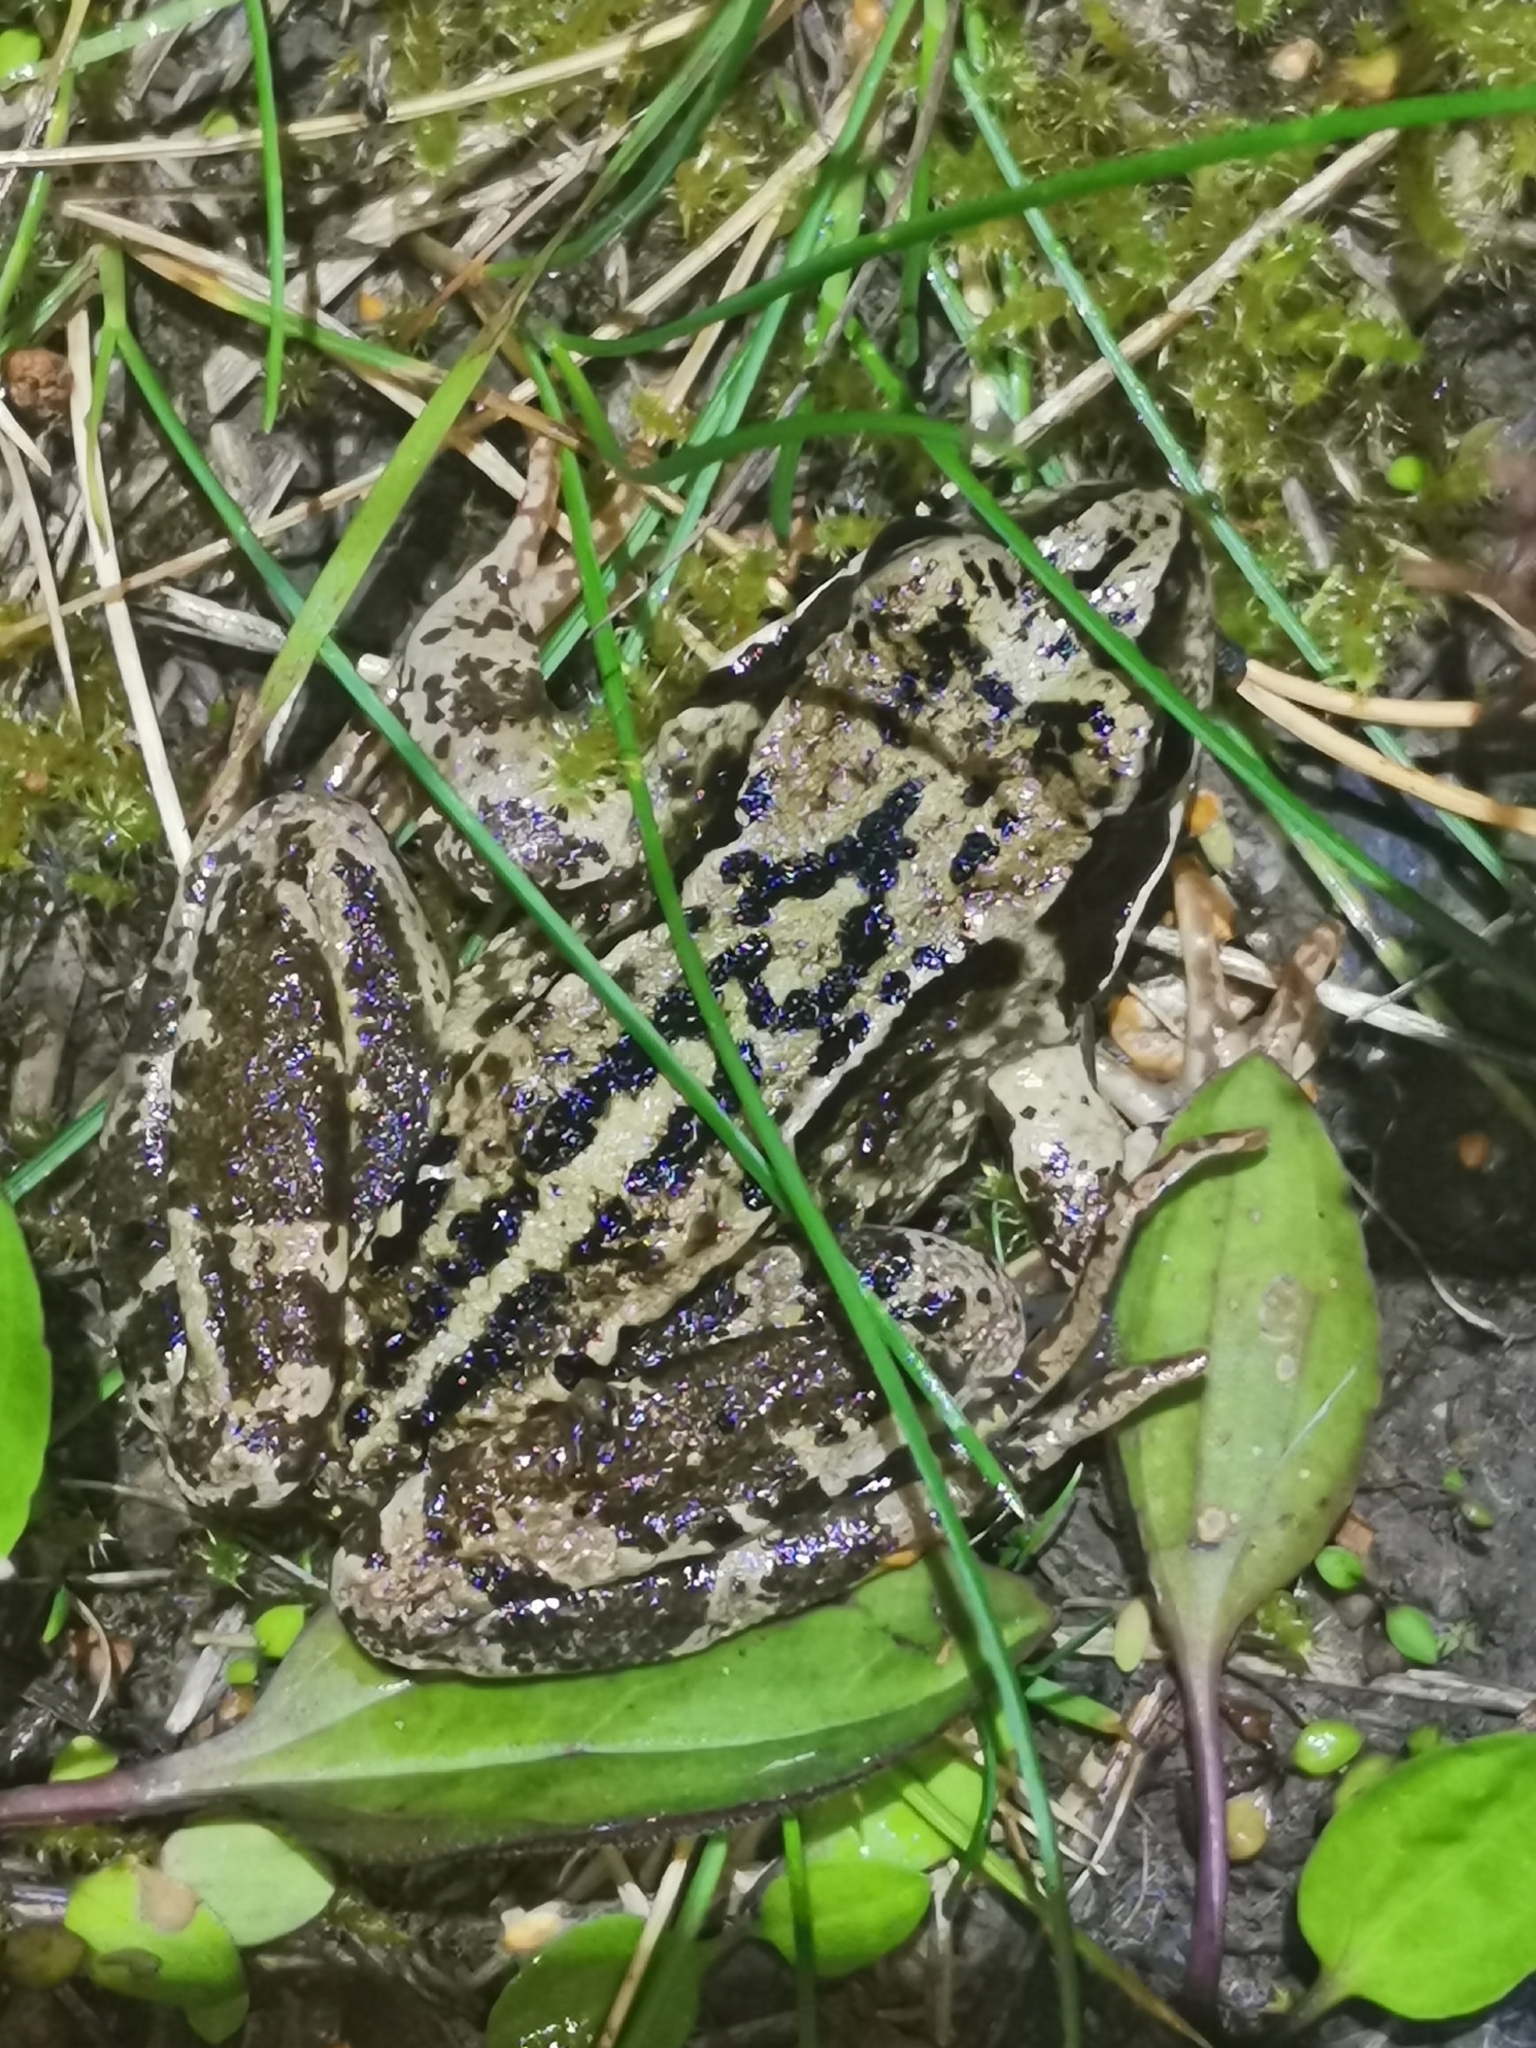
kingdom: Animalia
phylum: Chordata
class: Amphibia
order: Anura
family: Ranidae
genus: Rana
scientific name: Rana temporaria
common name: Common frog
